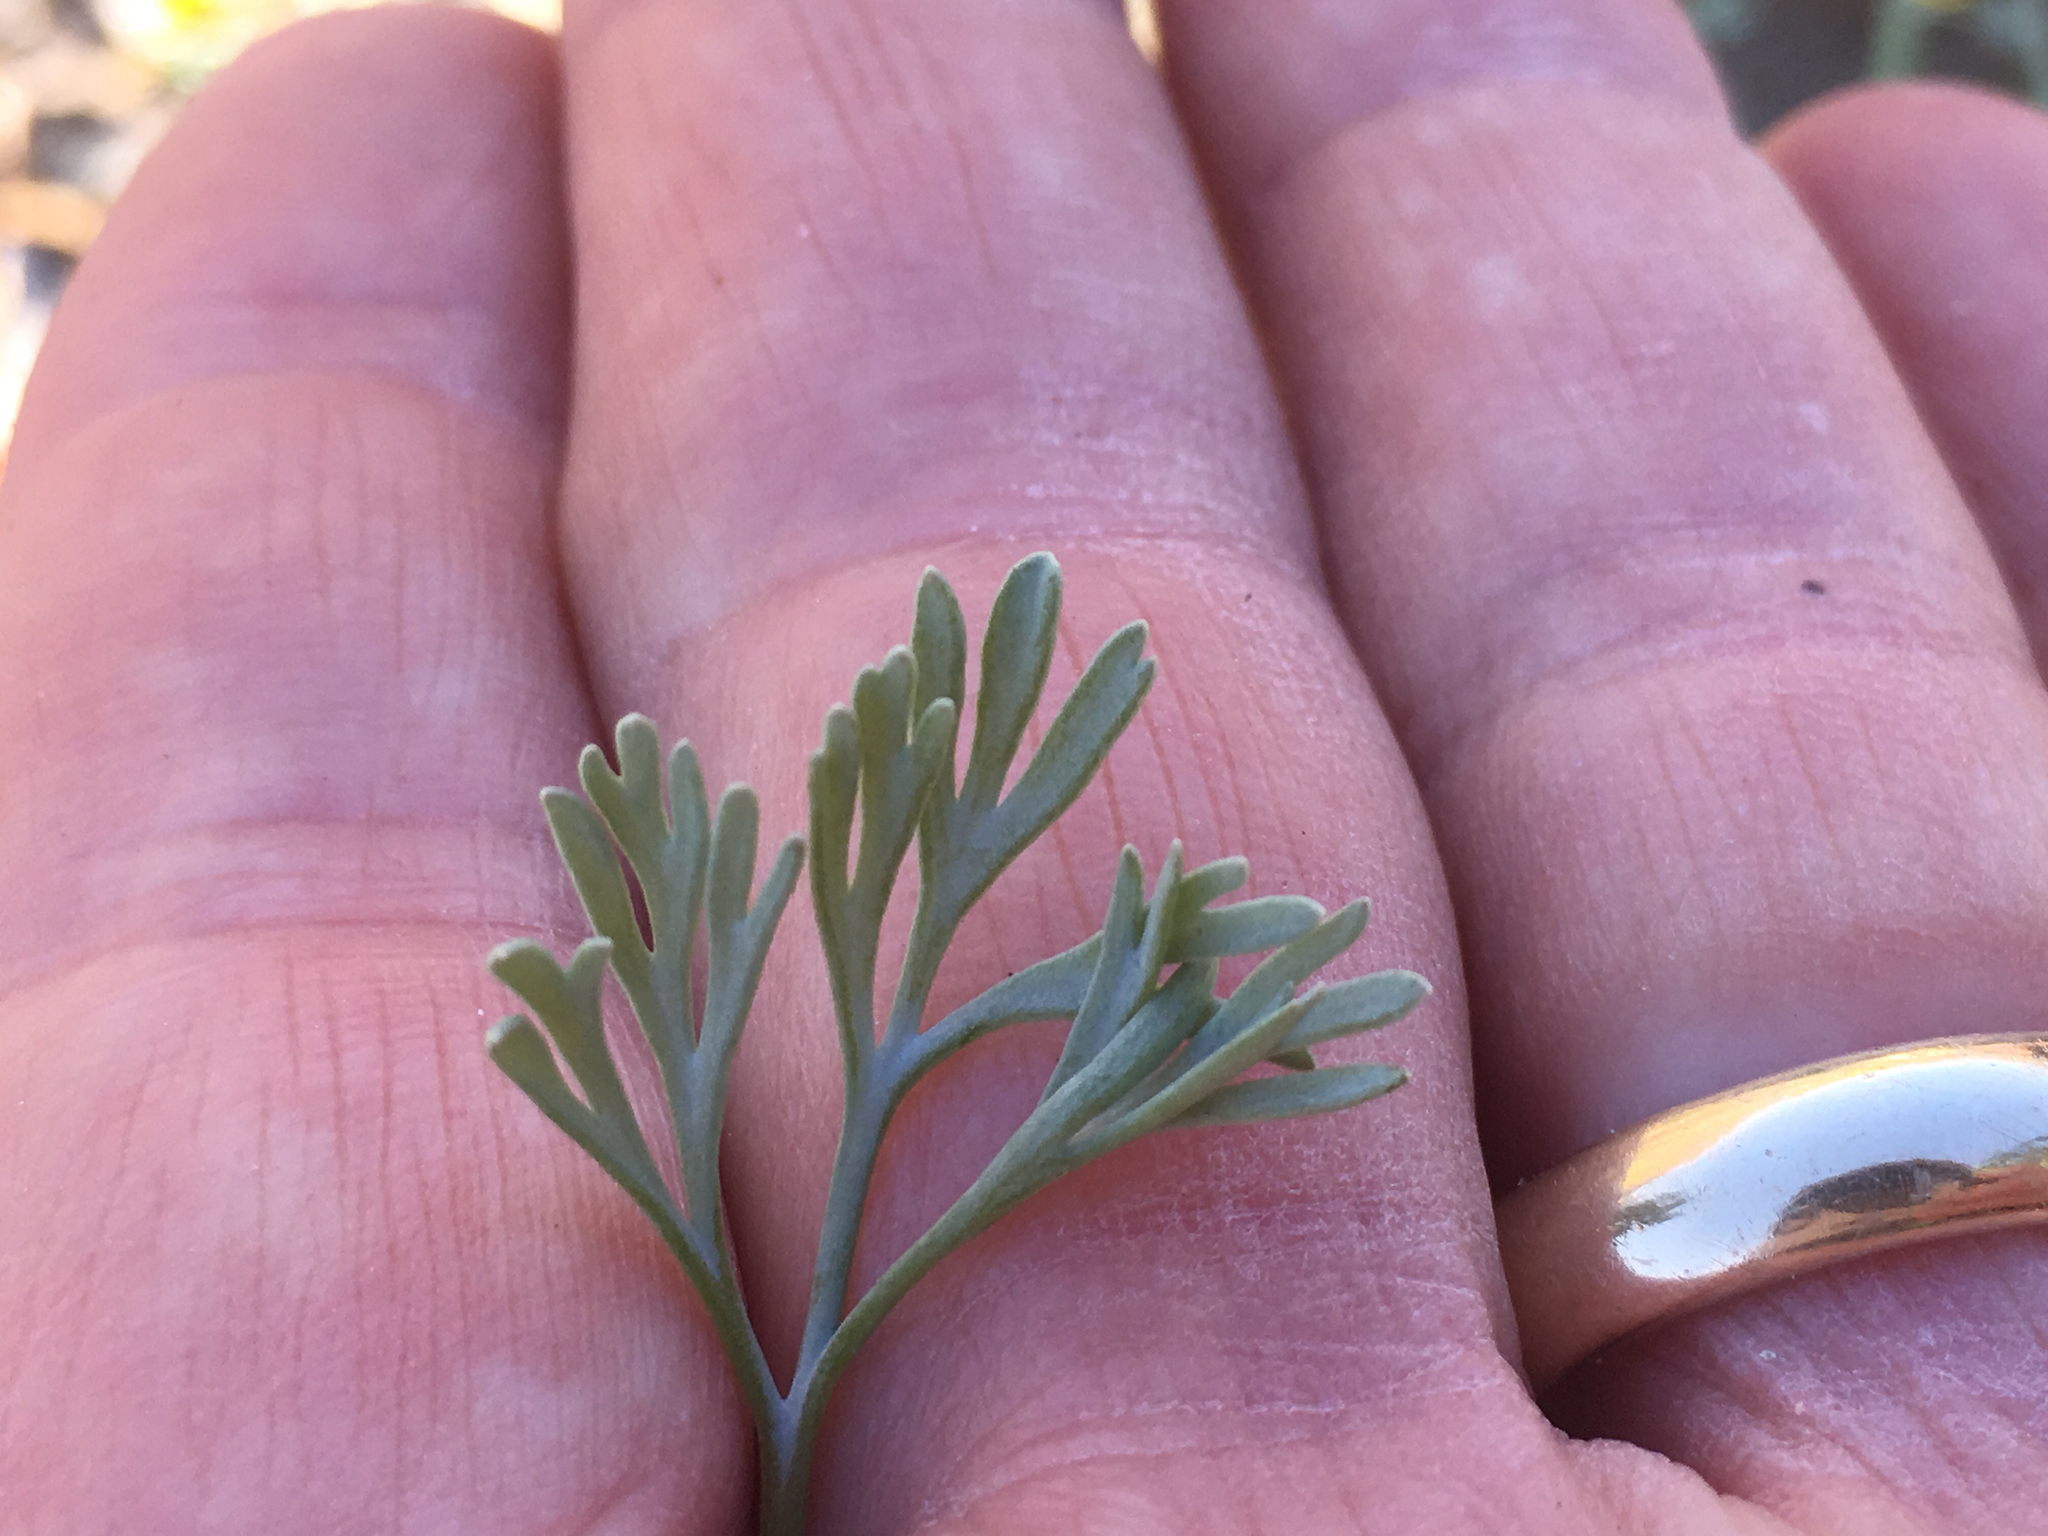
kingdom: Plantae
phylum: Tracheophyta
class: Magnoliopsida
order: Ranunculales
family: Papaveraceae
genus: Eschscholzia
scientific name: Eschscholzia minutiflora
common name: Small-flower california-poppy
